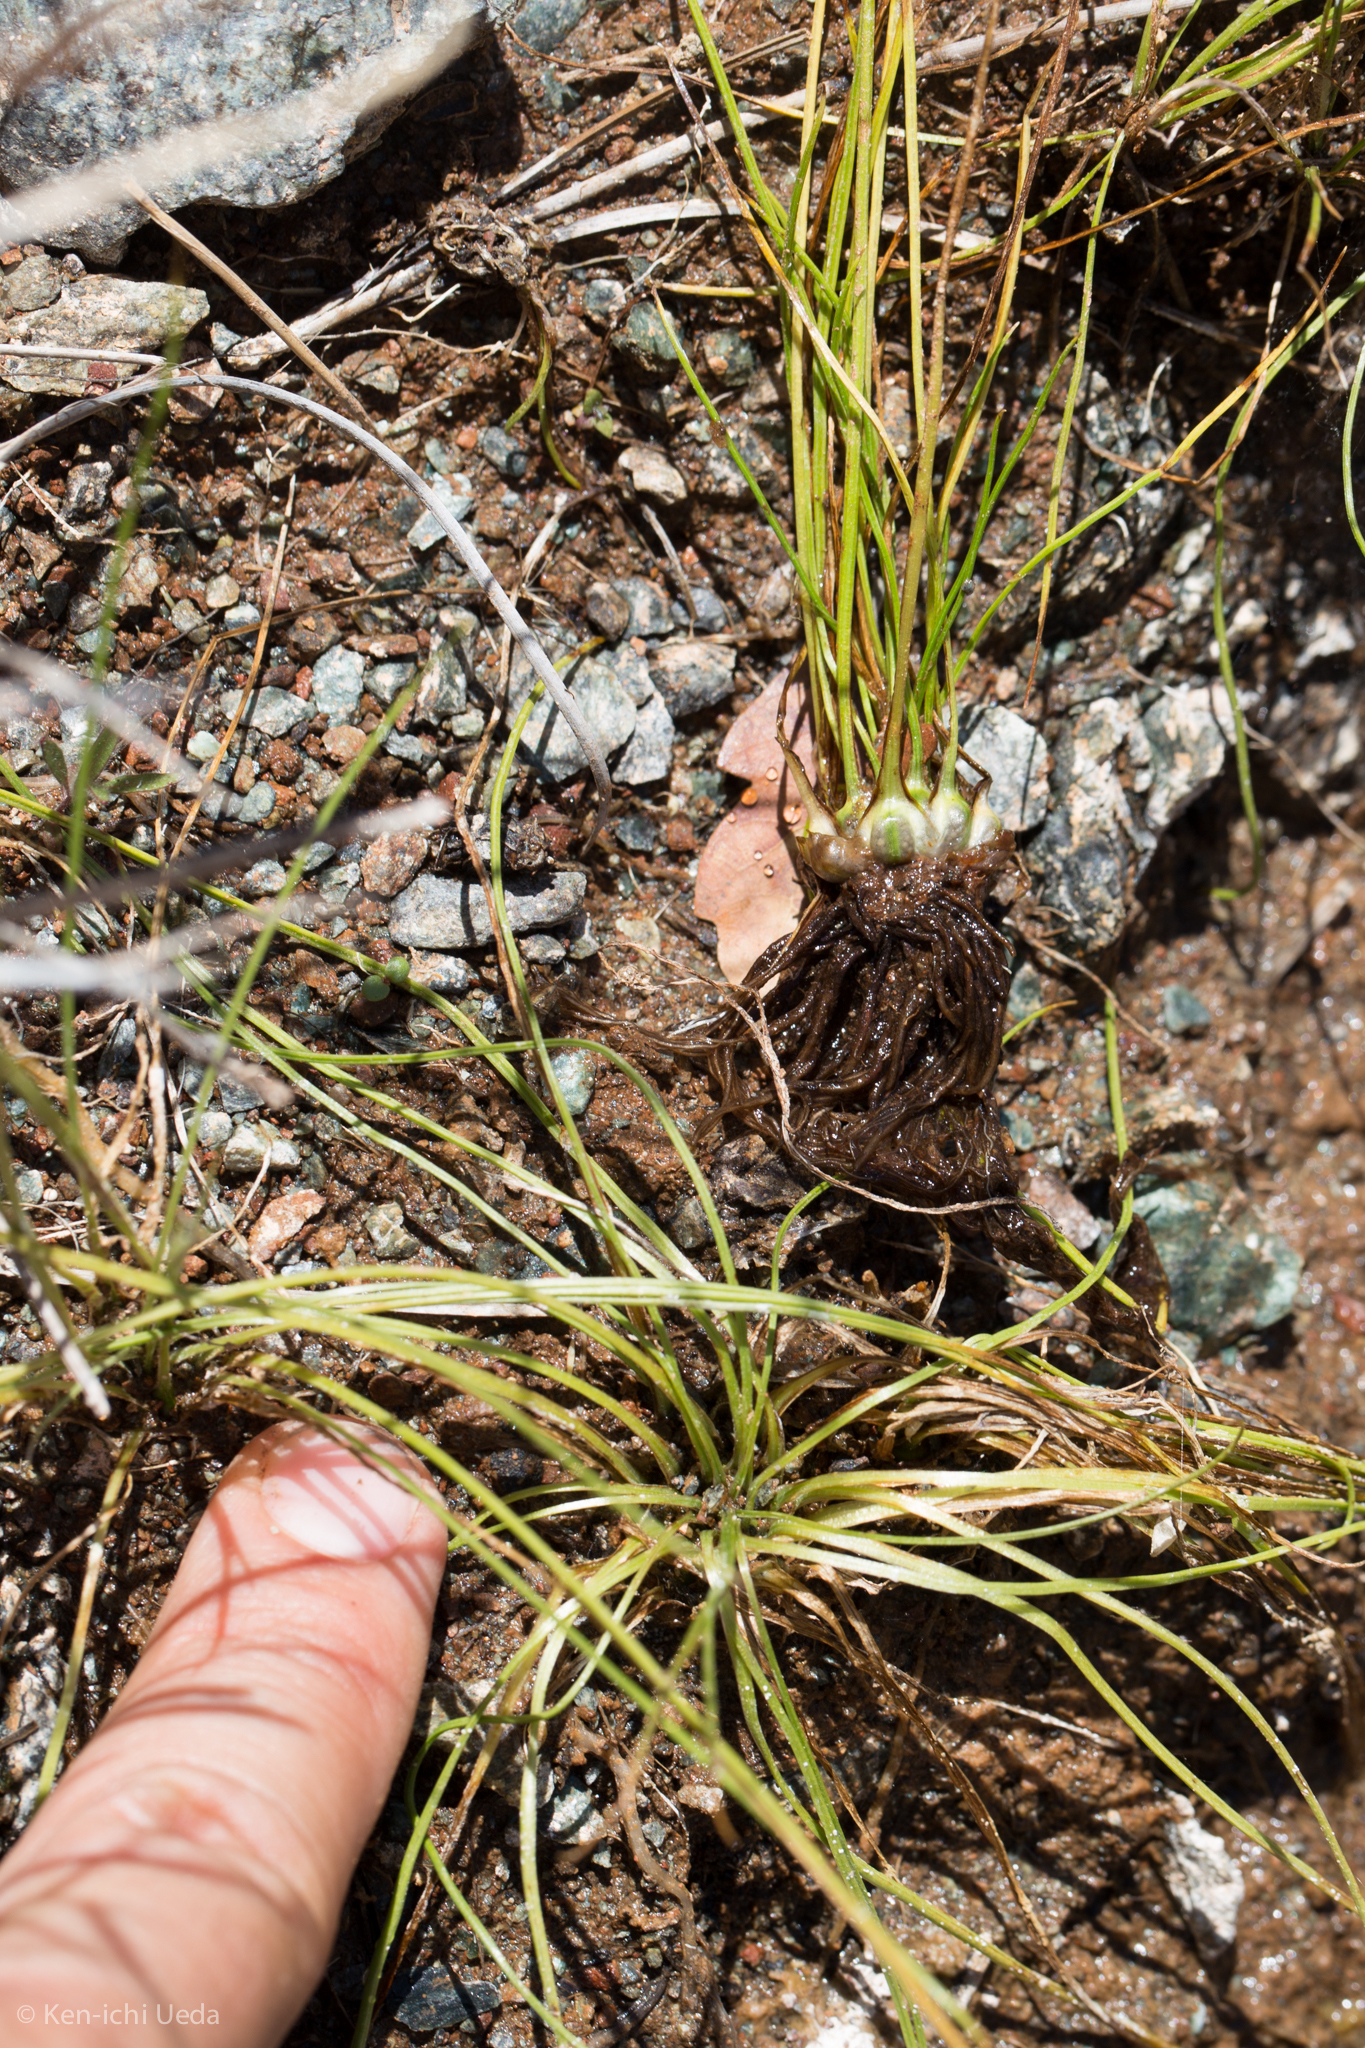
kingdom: Plantae
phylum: Tracheophyta
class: Lycopodiopsida
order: Isoetales
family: Isoetaceae
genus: Isoetes
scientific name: Isoetes nuttallii
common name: Nuttall's quillwort
